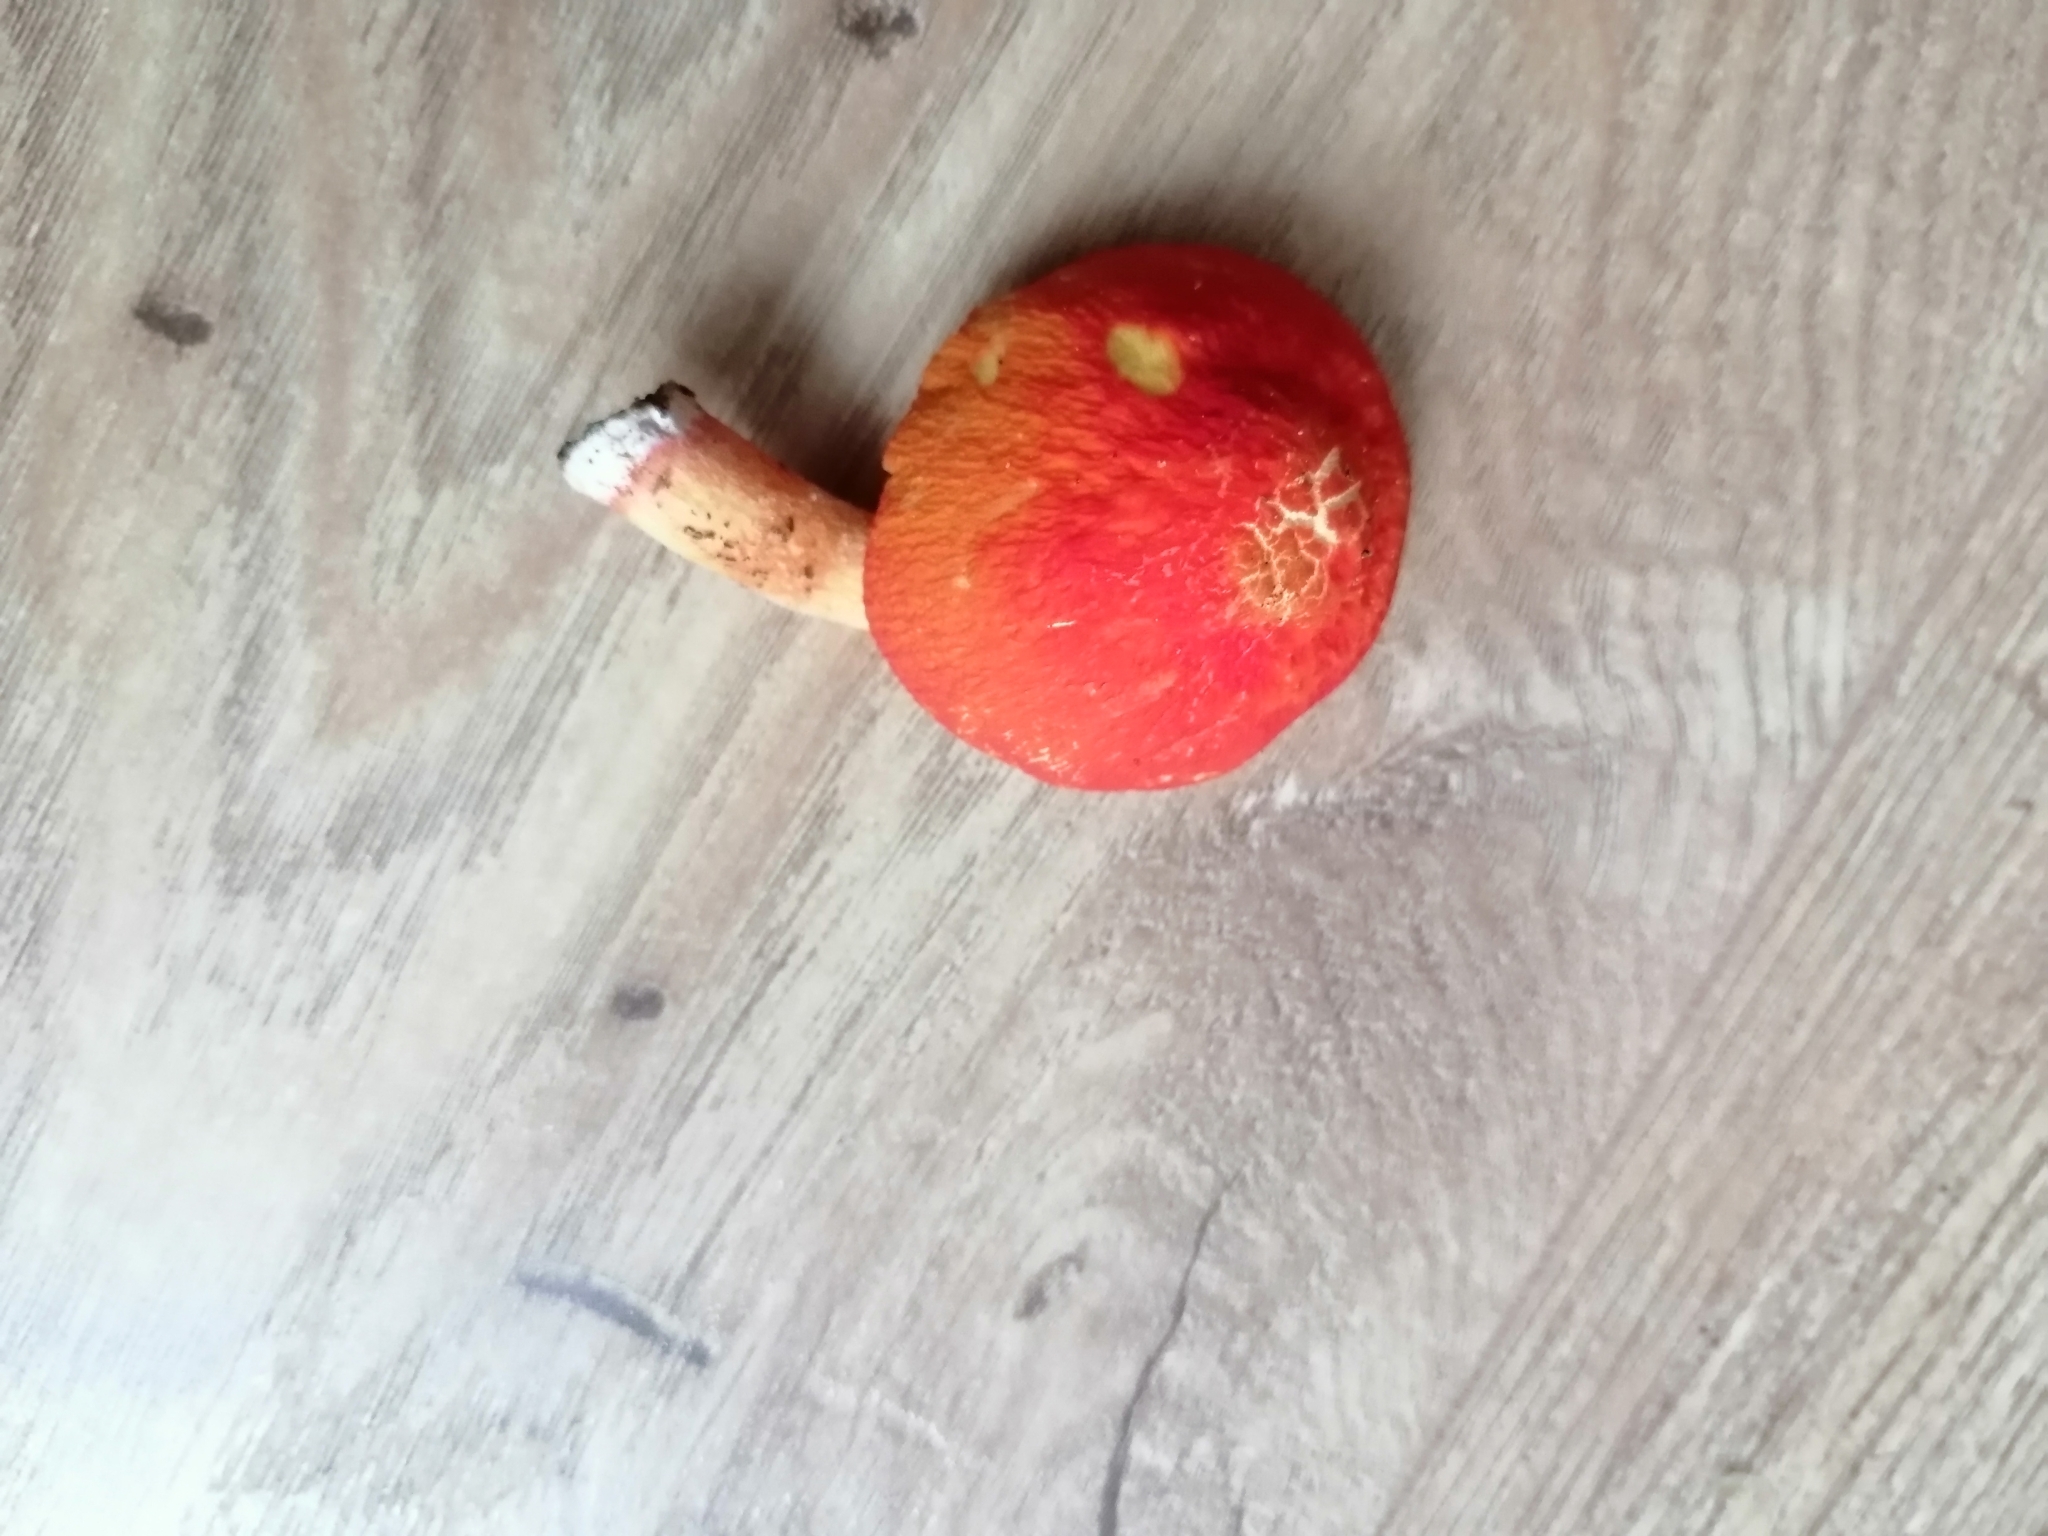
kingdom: Fungi
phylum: Basidiomycota
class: Agaricomycetes
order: Agaricales
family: Pluteaceae
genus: Pluteus
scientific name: Pluteus aurantiorugosus
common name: Flame shield
